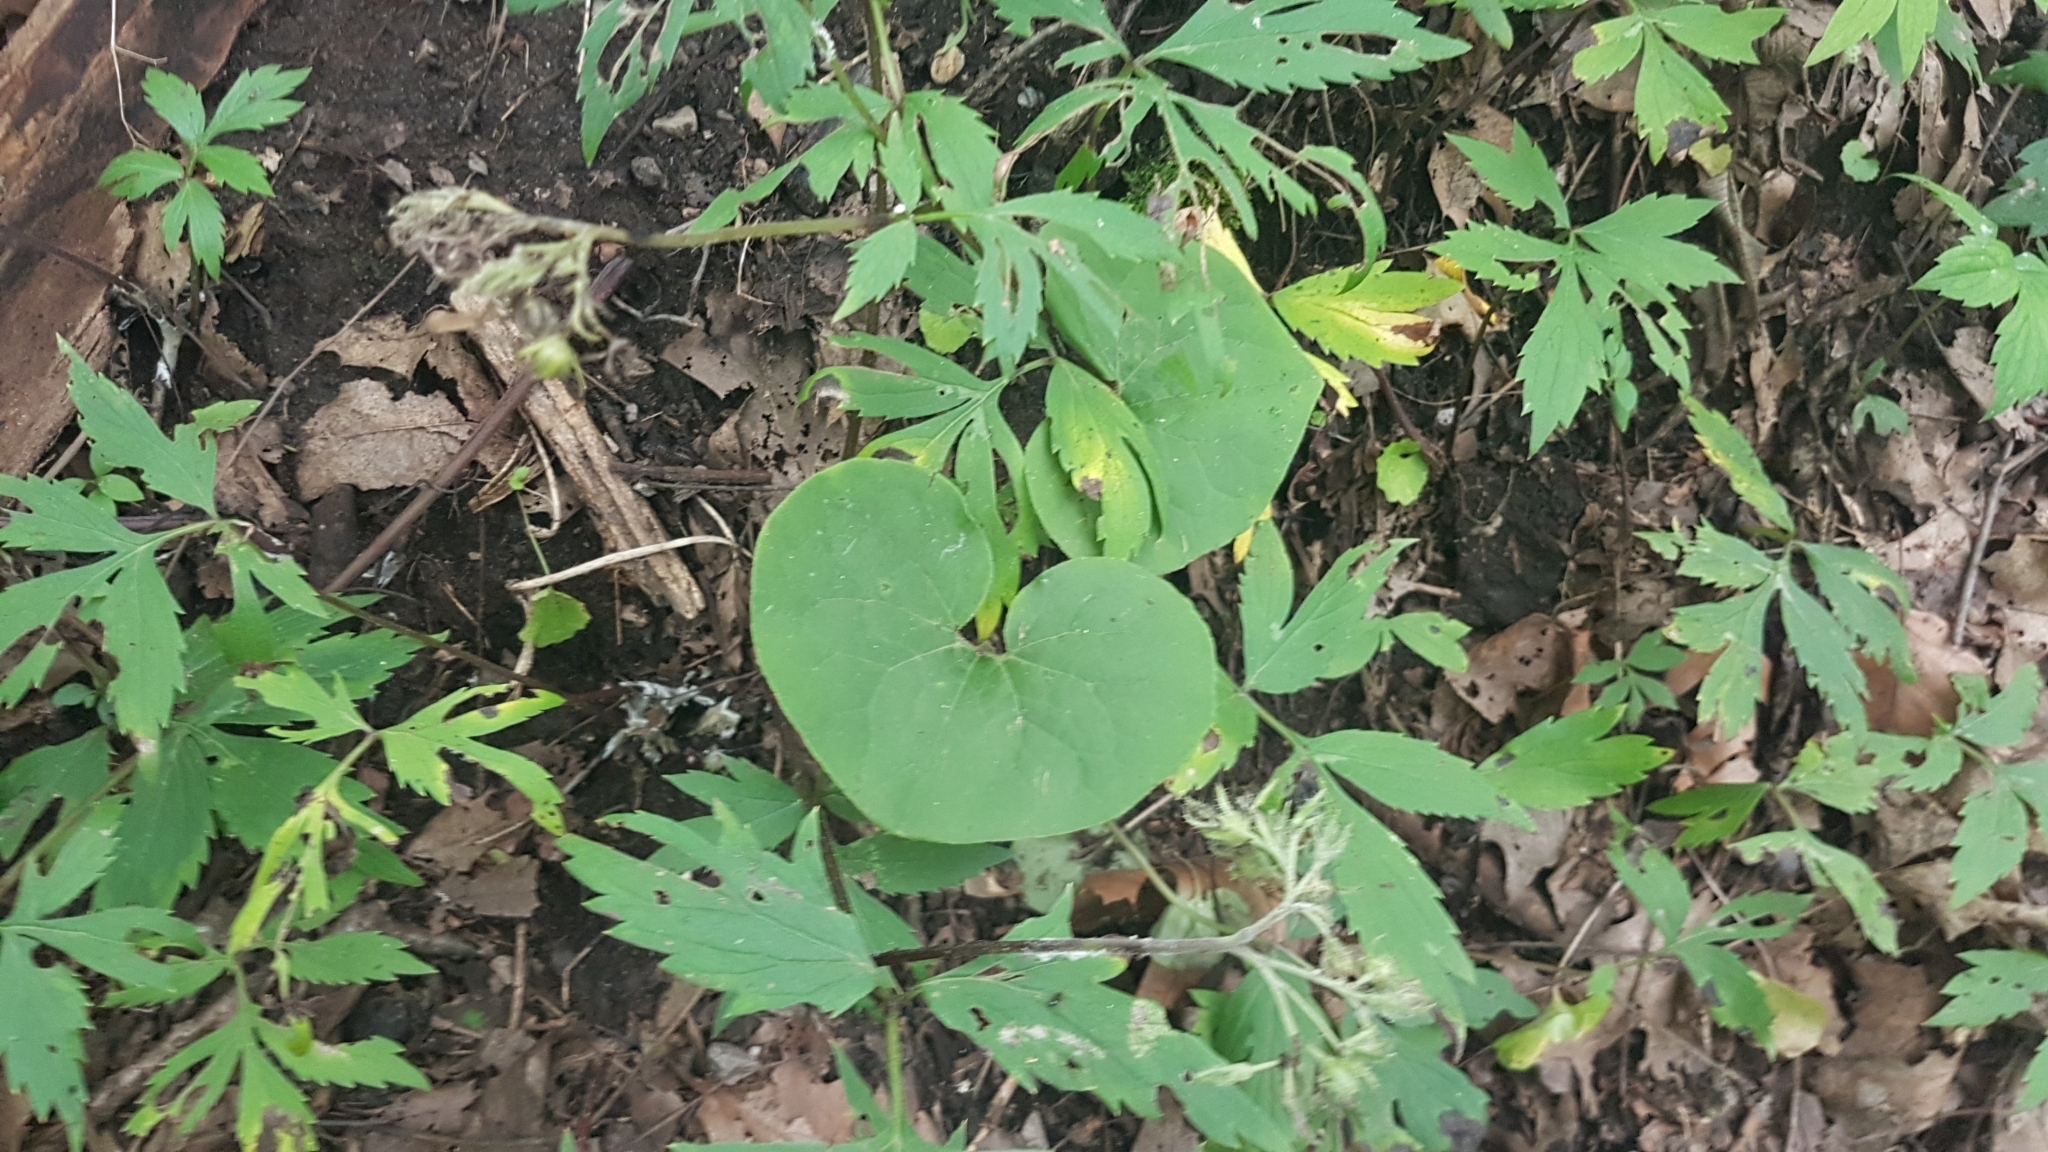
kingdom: Plantae
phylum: Tracheophyta
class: Magnoliopsida
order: Piperales
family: Aristolochiaceae
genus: Asarum
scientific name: Asarum canadense
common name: Wild ginger
